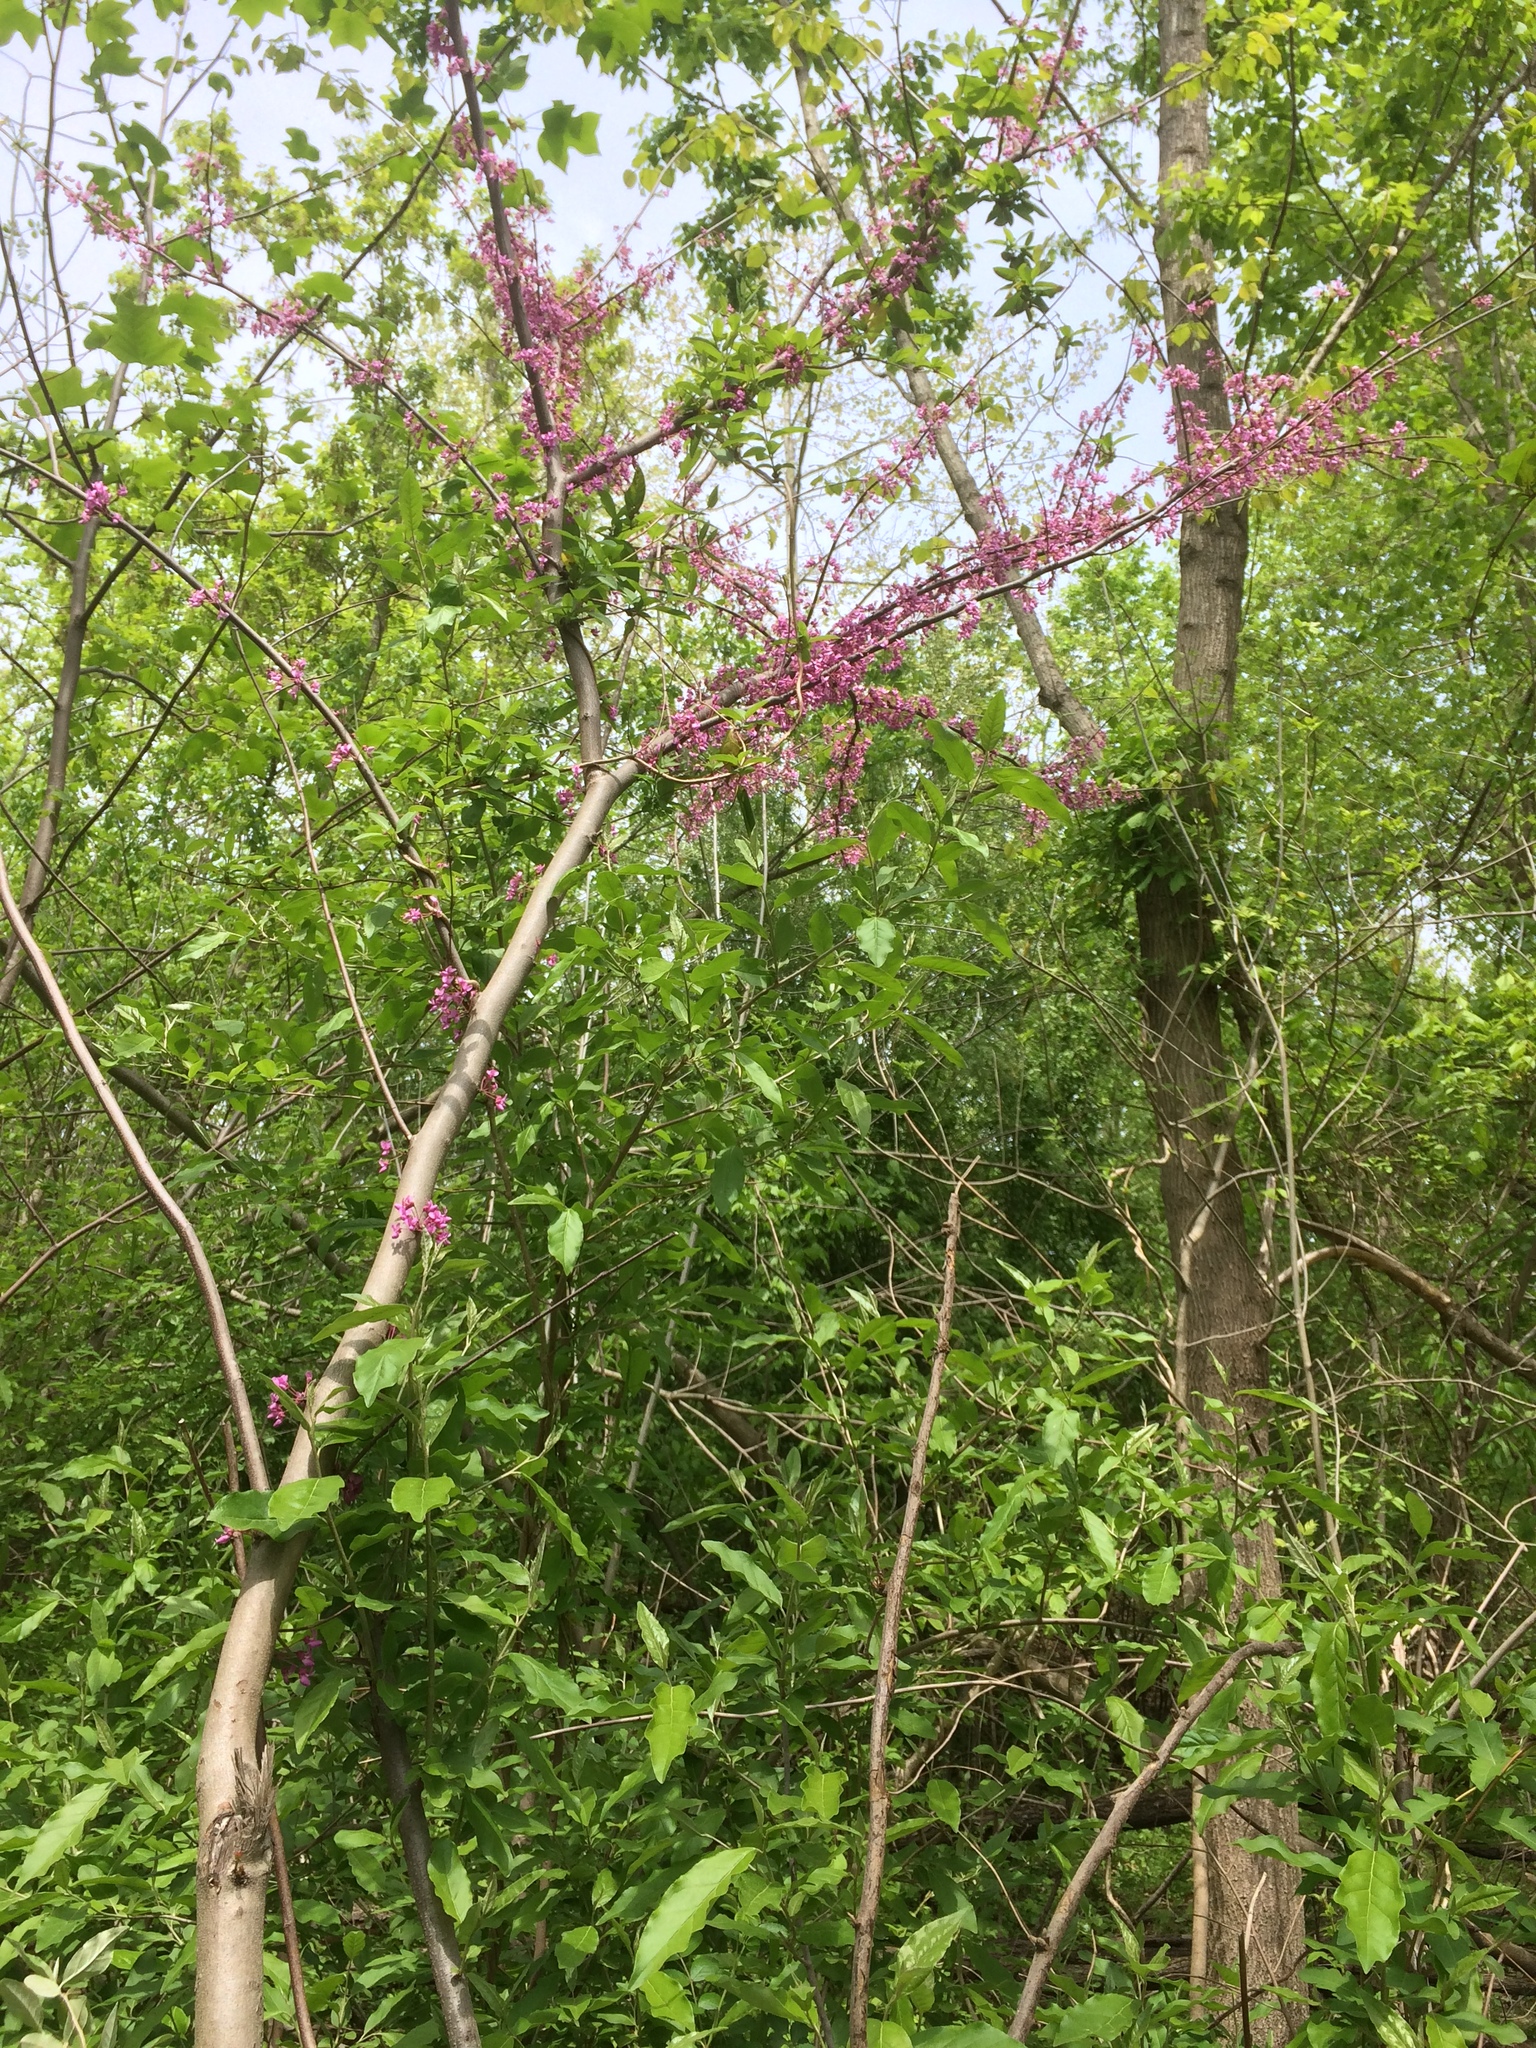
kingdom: Plantae
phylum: Tracheophyta
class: Magnoliopsida
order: Fabales
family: Fabaceae
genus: Cercis
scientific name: Cercis canadensis
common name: Eastern redbud
